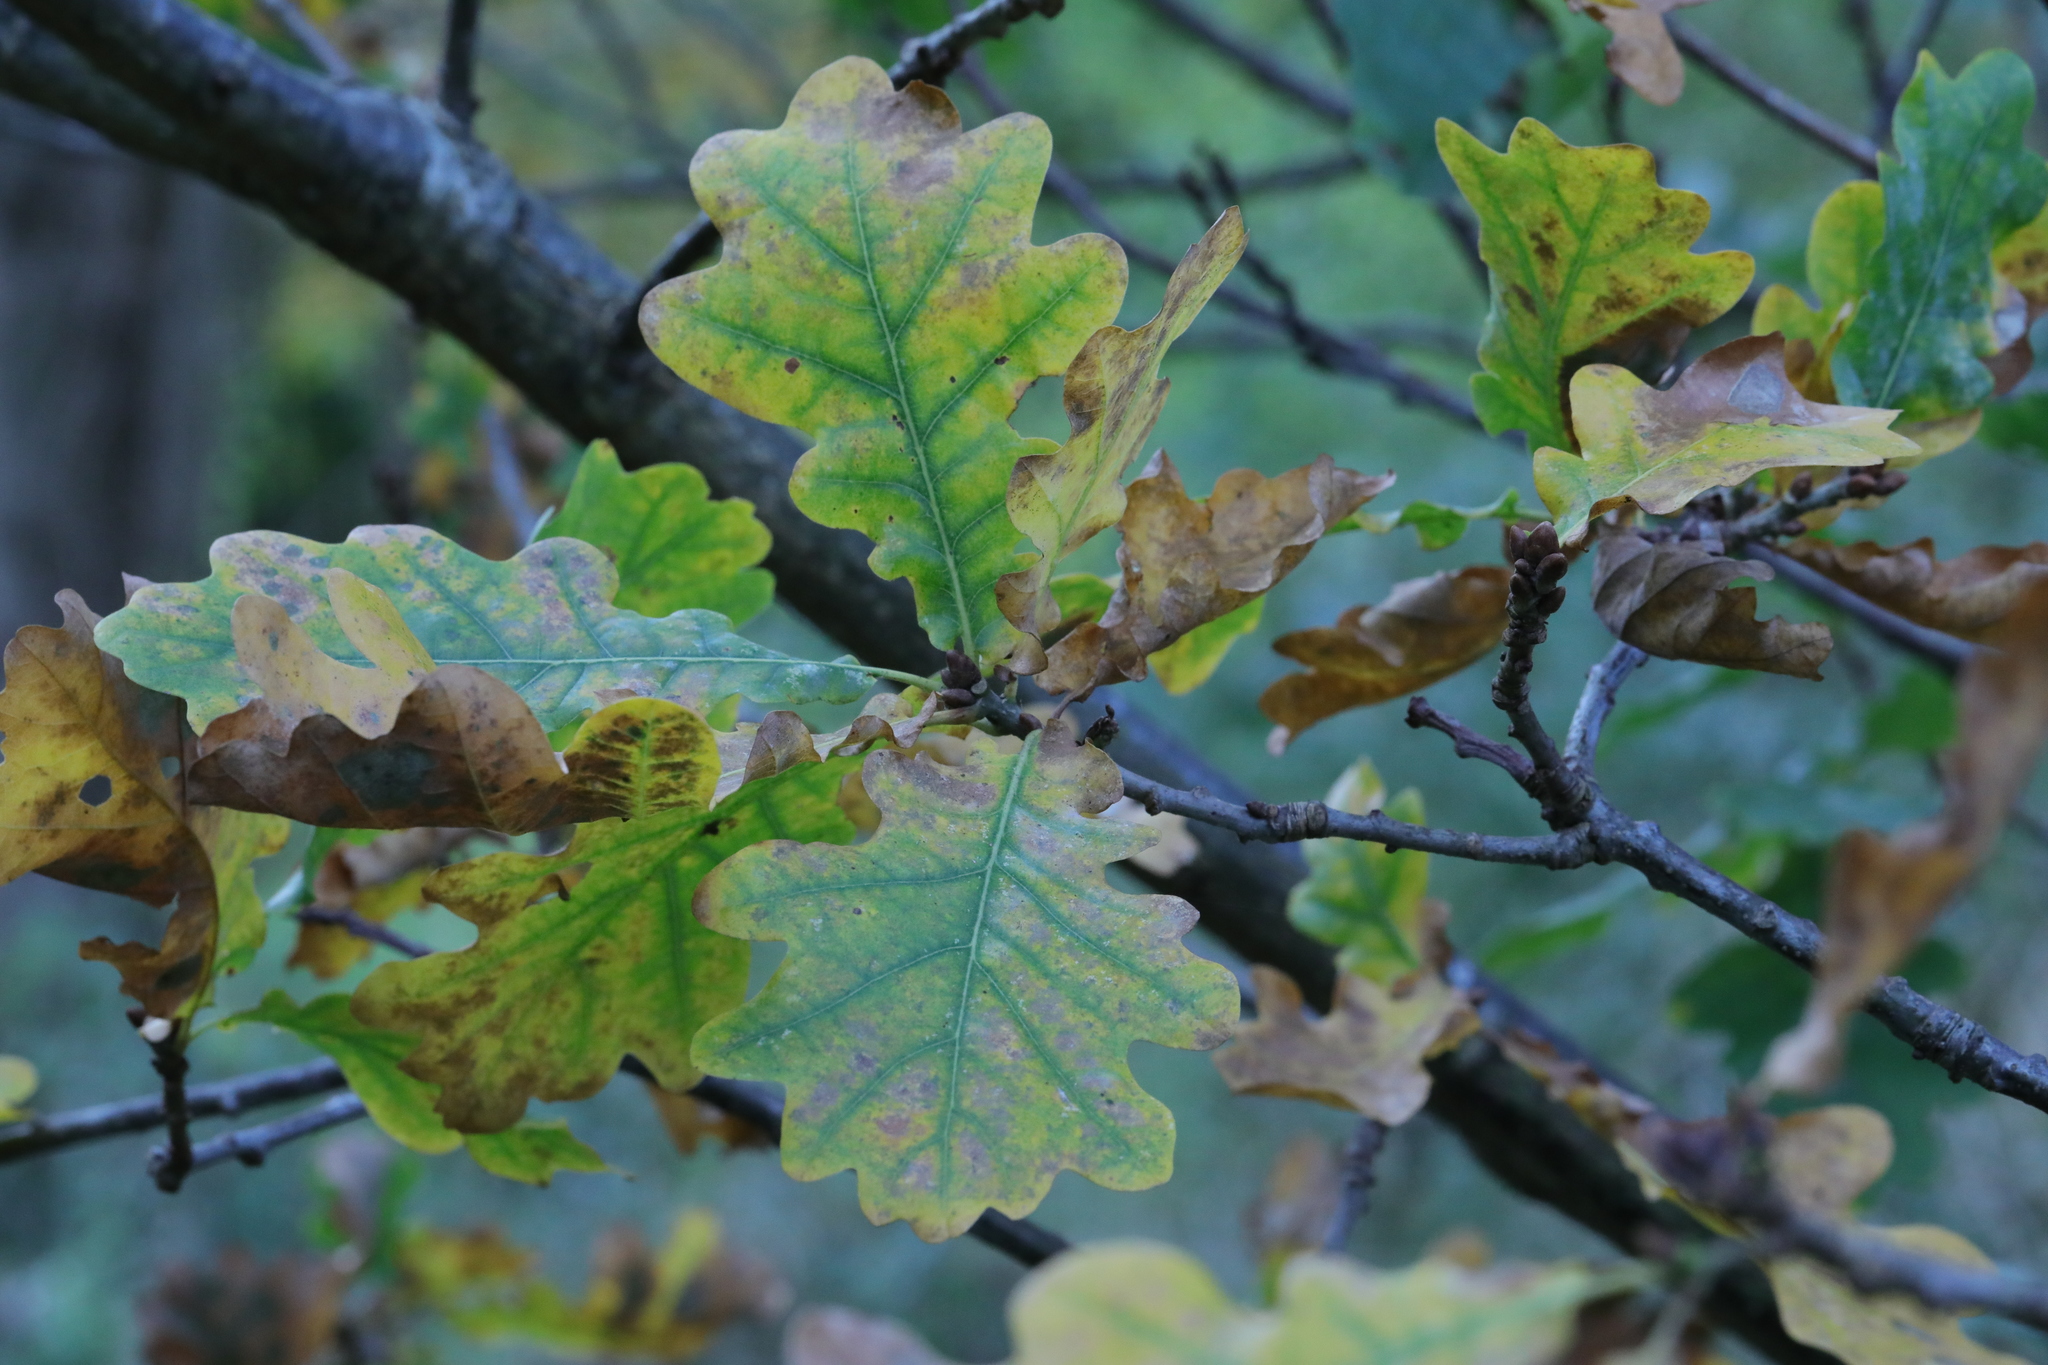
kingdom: Plantae
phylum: Tracheophyta
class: Magnoliopsida
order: Fagales
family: Fagaceae
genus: Quercus
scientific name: Quercus robur
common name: Pedunculate oak
